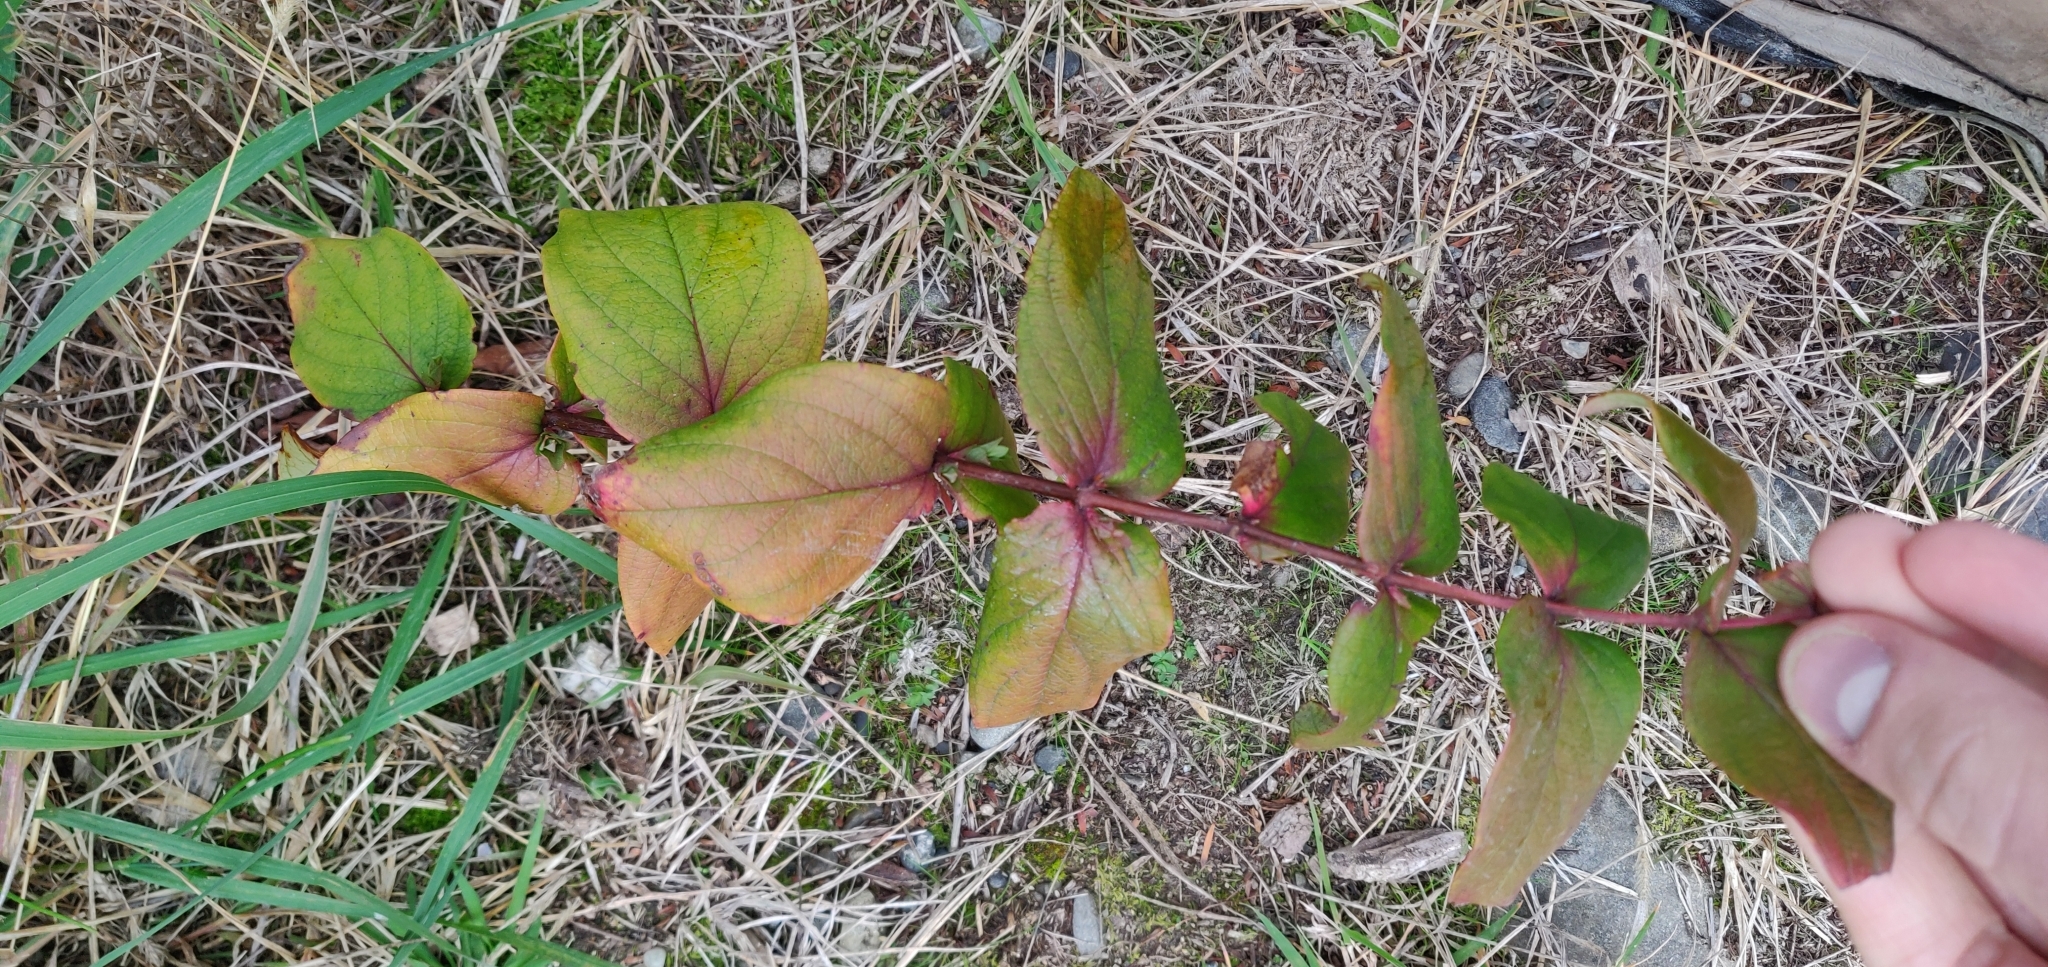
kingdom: Plantae
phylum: Tracheophyta
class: Magnoliopsida
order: Malpighiales
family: Hypericaceae
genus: Hypericum
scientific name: Hypericum androsaemum
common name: Sweet-amber
